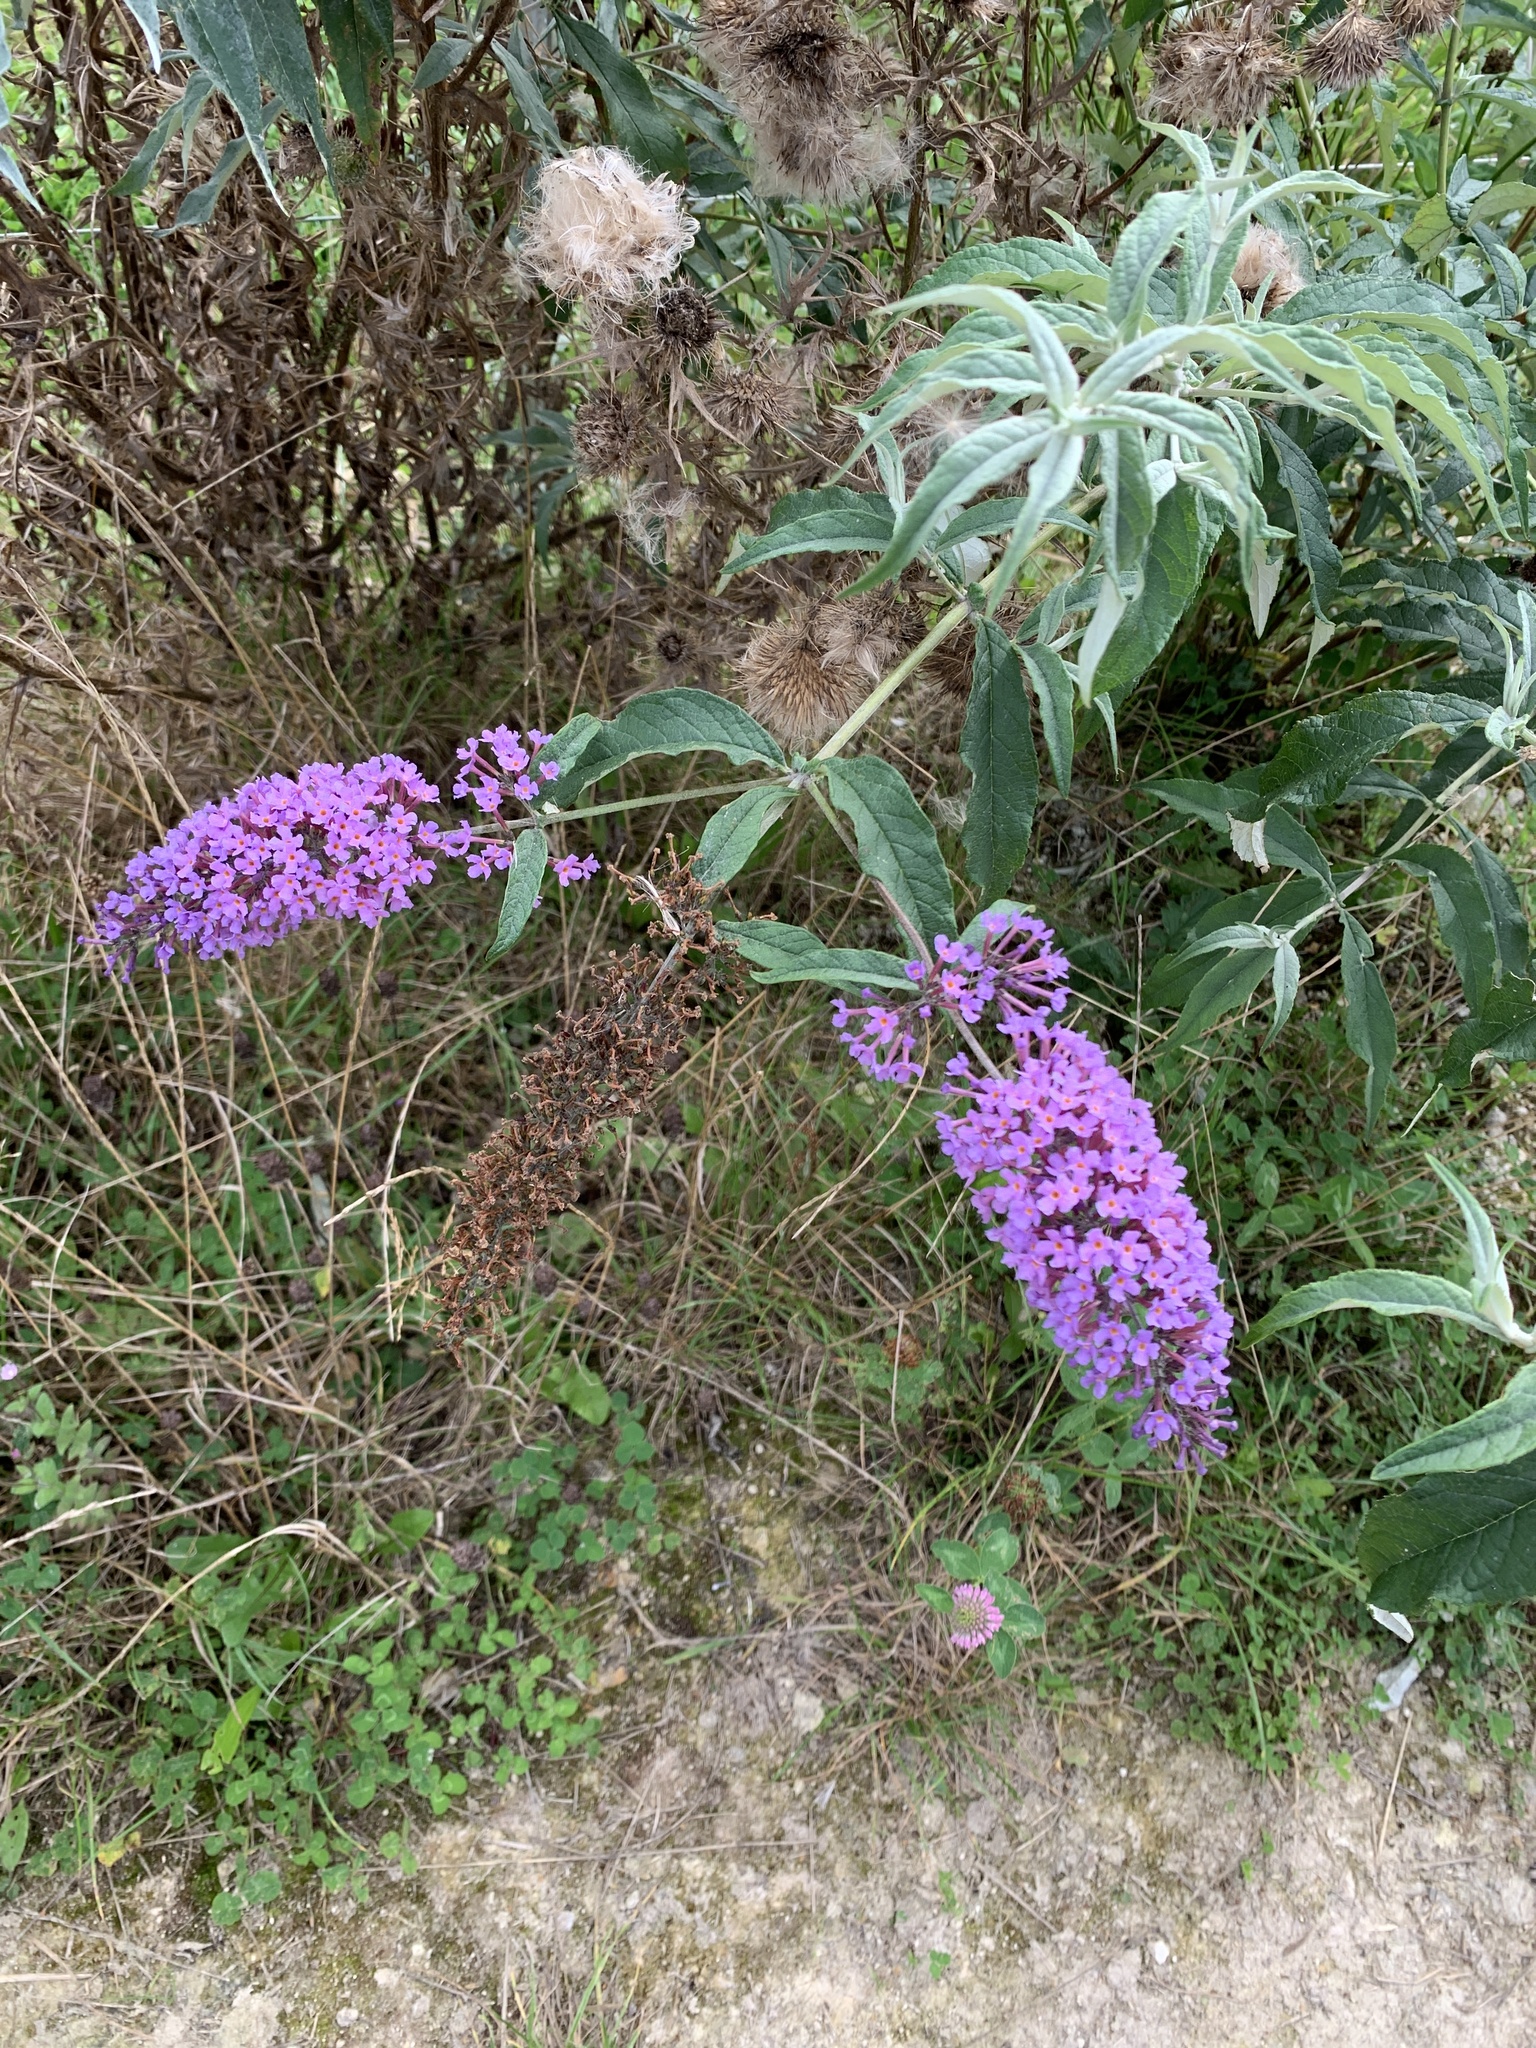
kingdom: Plantae
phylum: Tracheophyta
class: Magnoliopsida
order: Lamiales
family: Scrophulariaceae
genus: Buddleja
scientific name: Buddleja davidii
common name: Butterfly-bush
